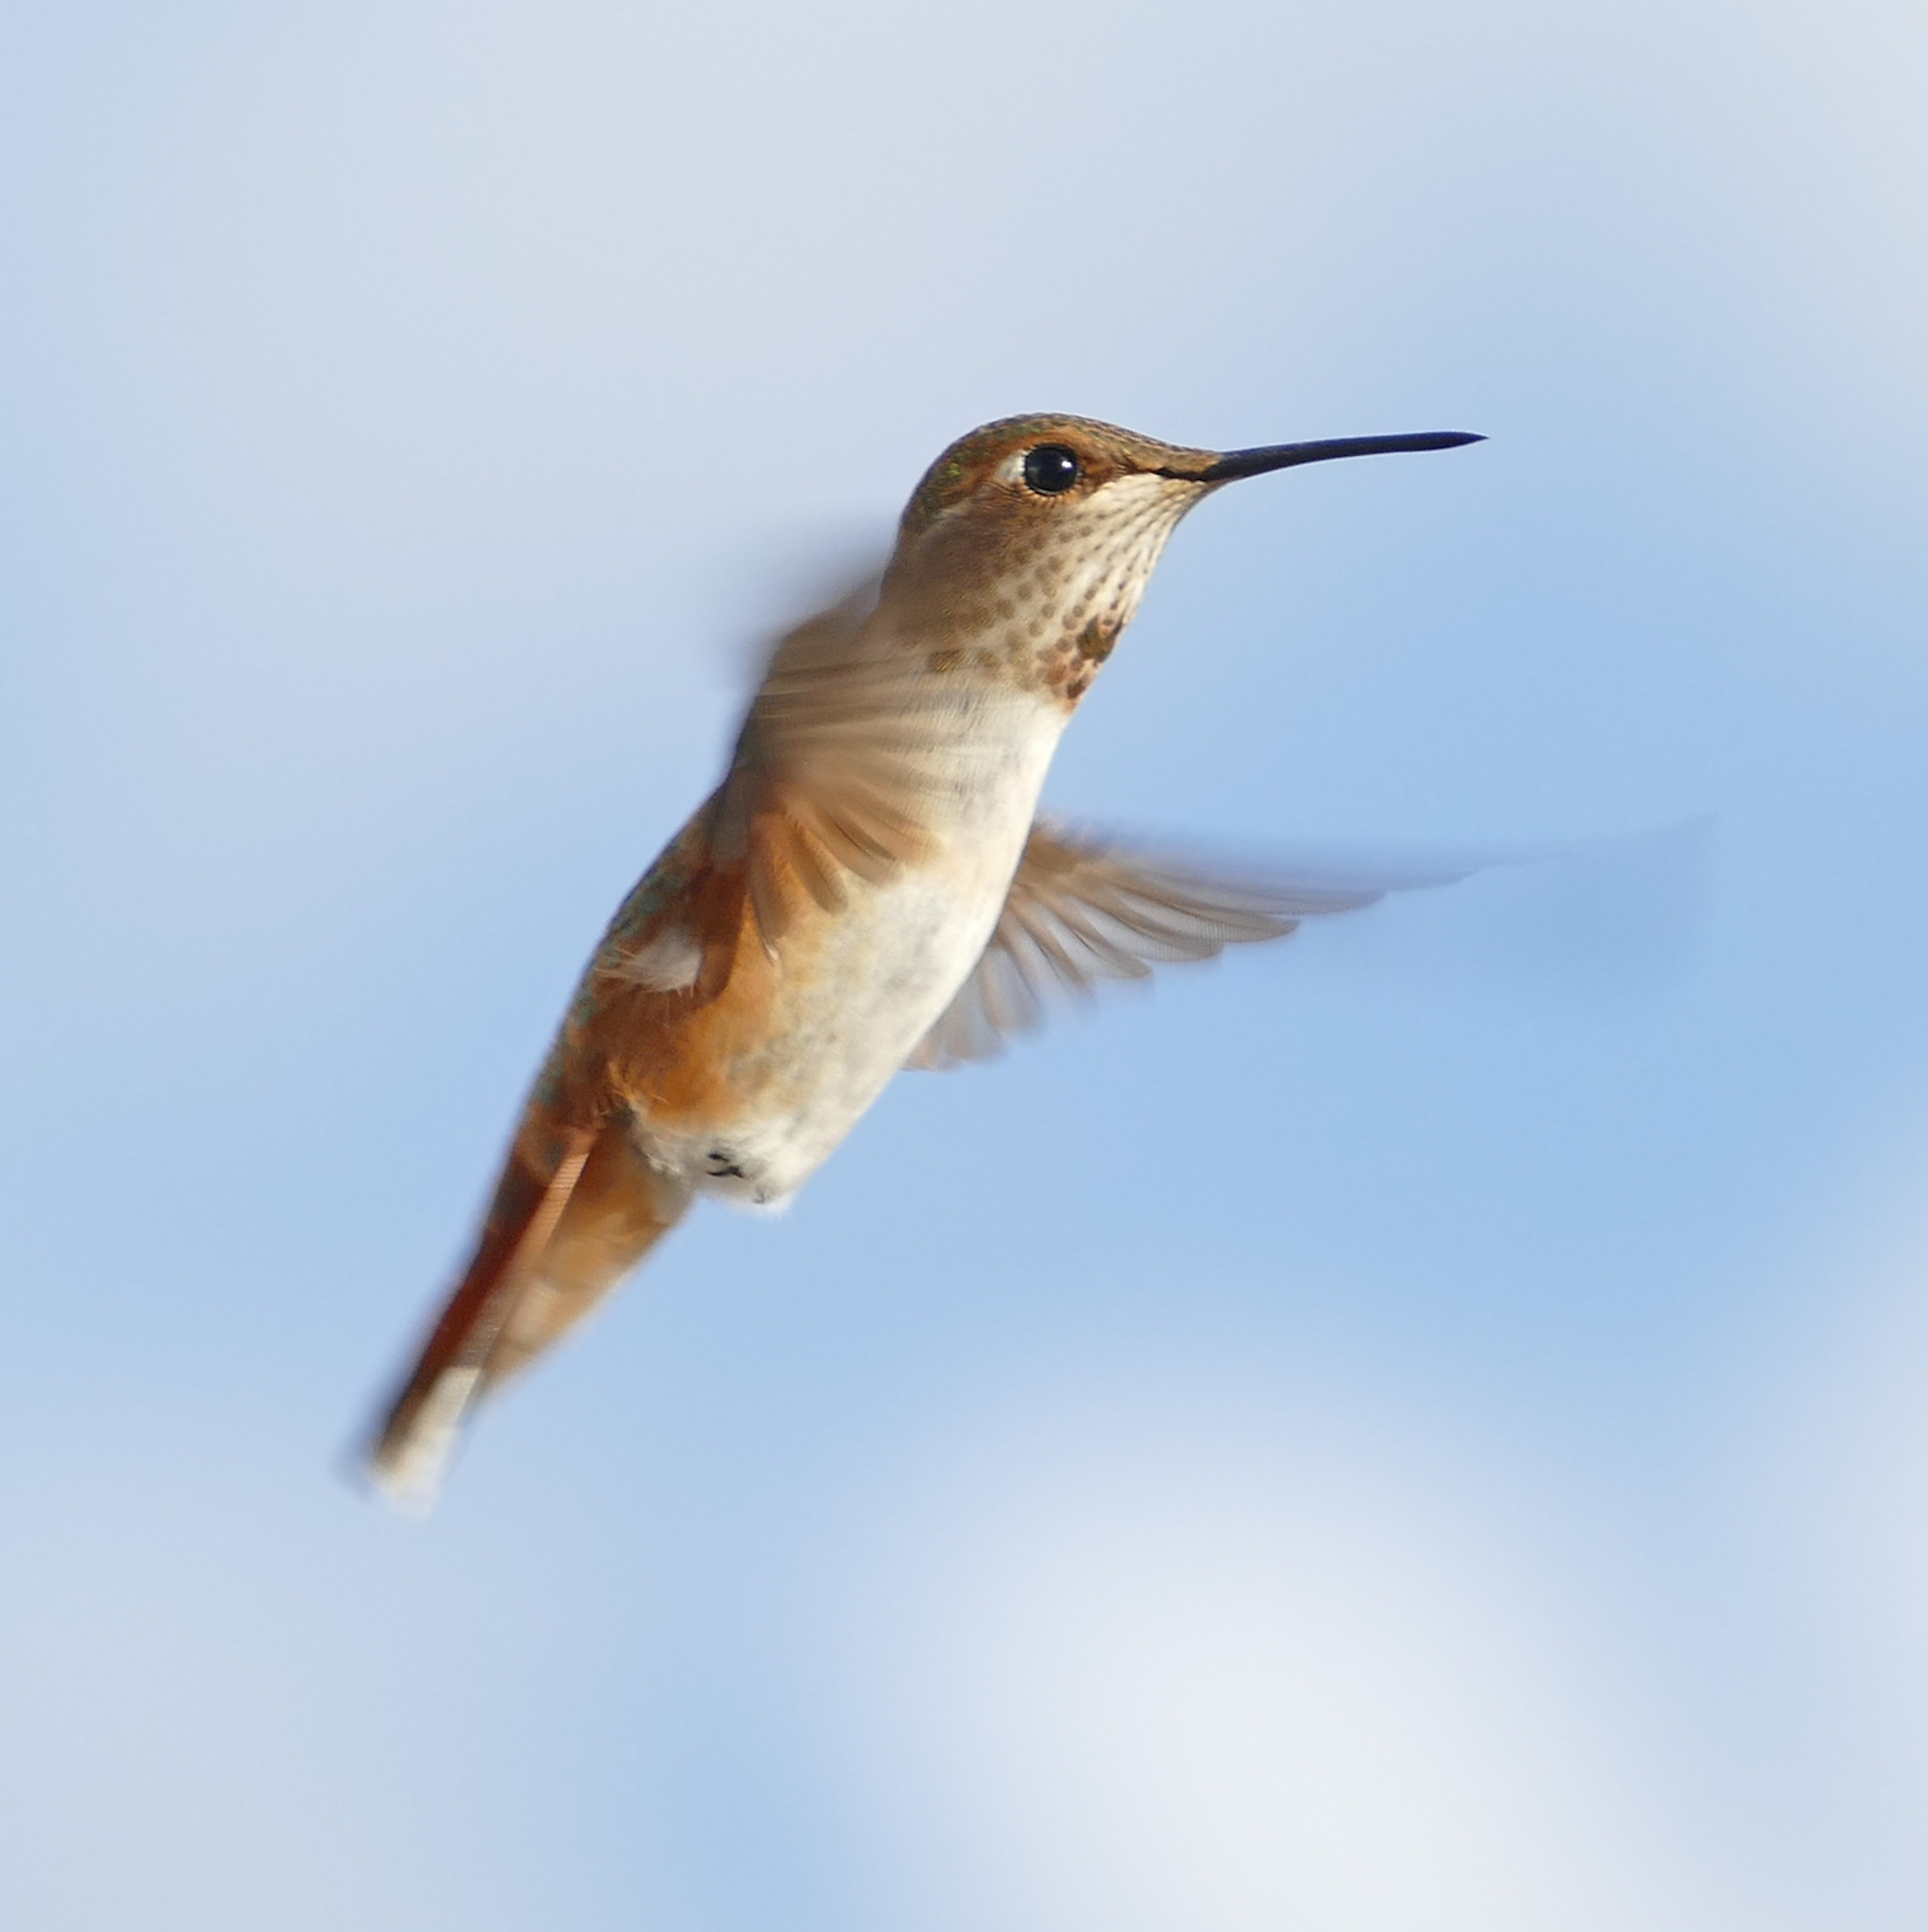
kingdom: Animalia
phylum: Chordata
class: Aves
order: Apodiformes
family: Trochilidae
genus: Selasphorus
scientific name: Selasphorus rufus
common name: Rufous hummingbird
